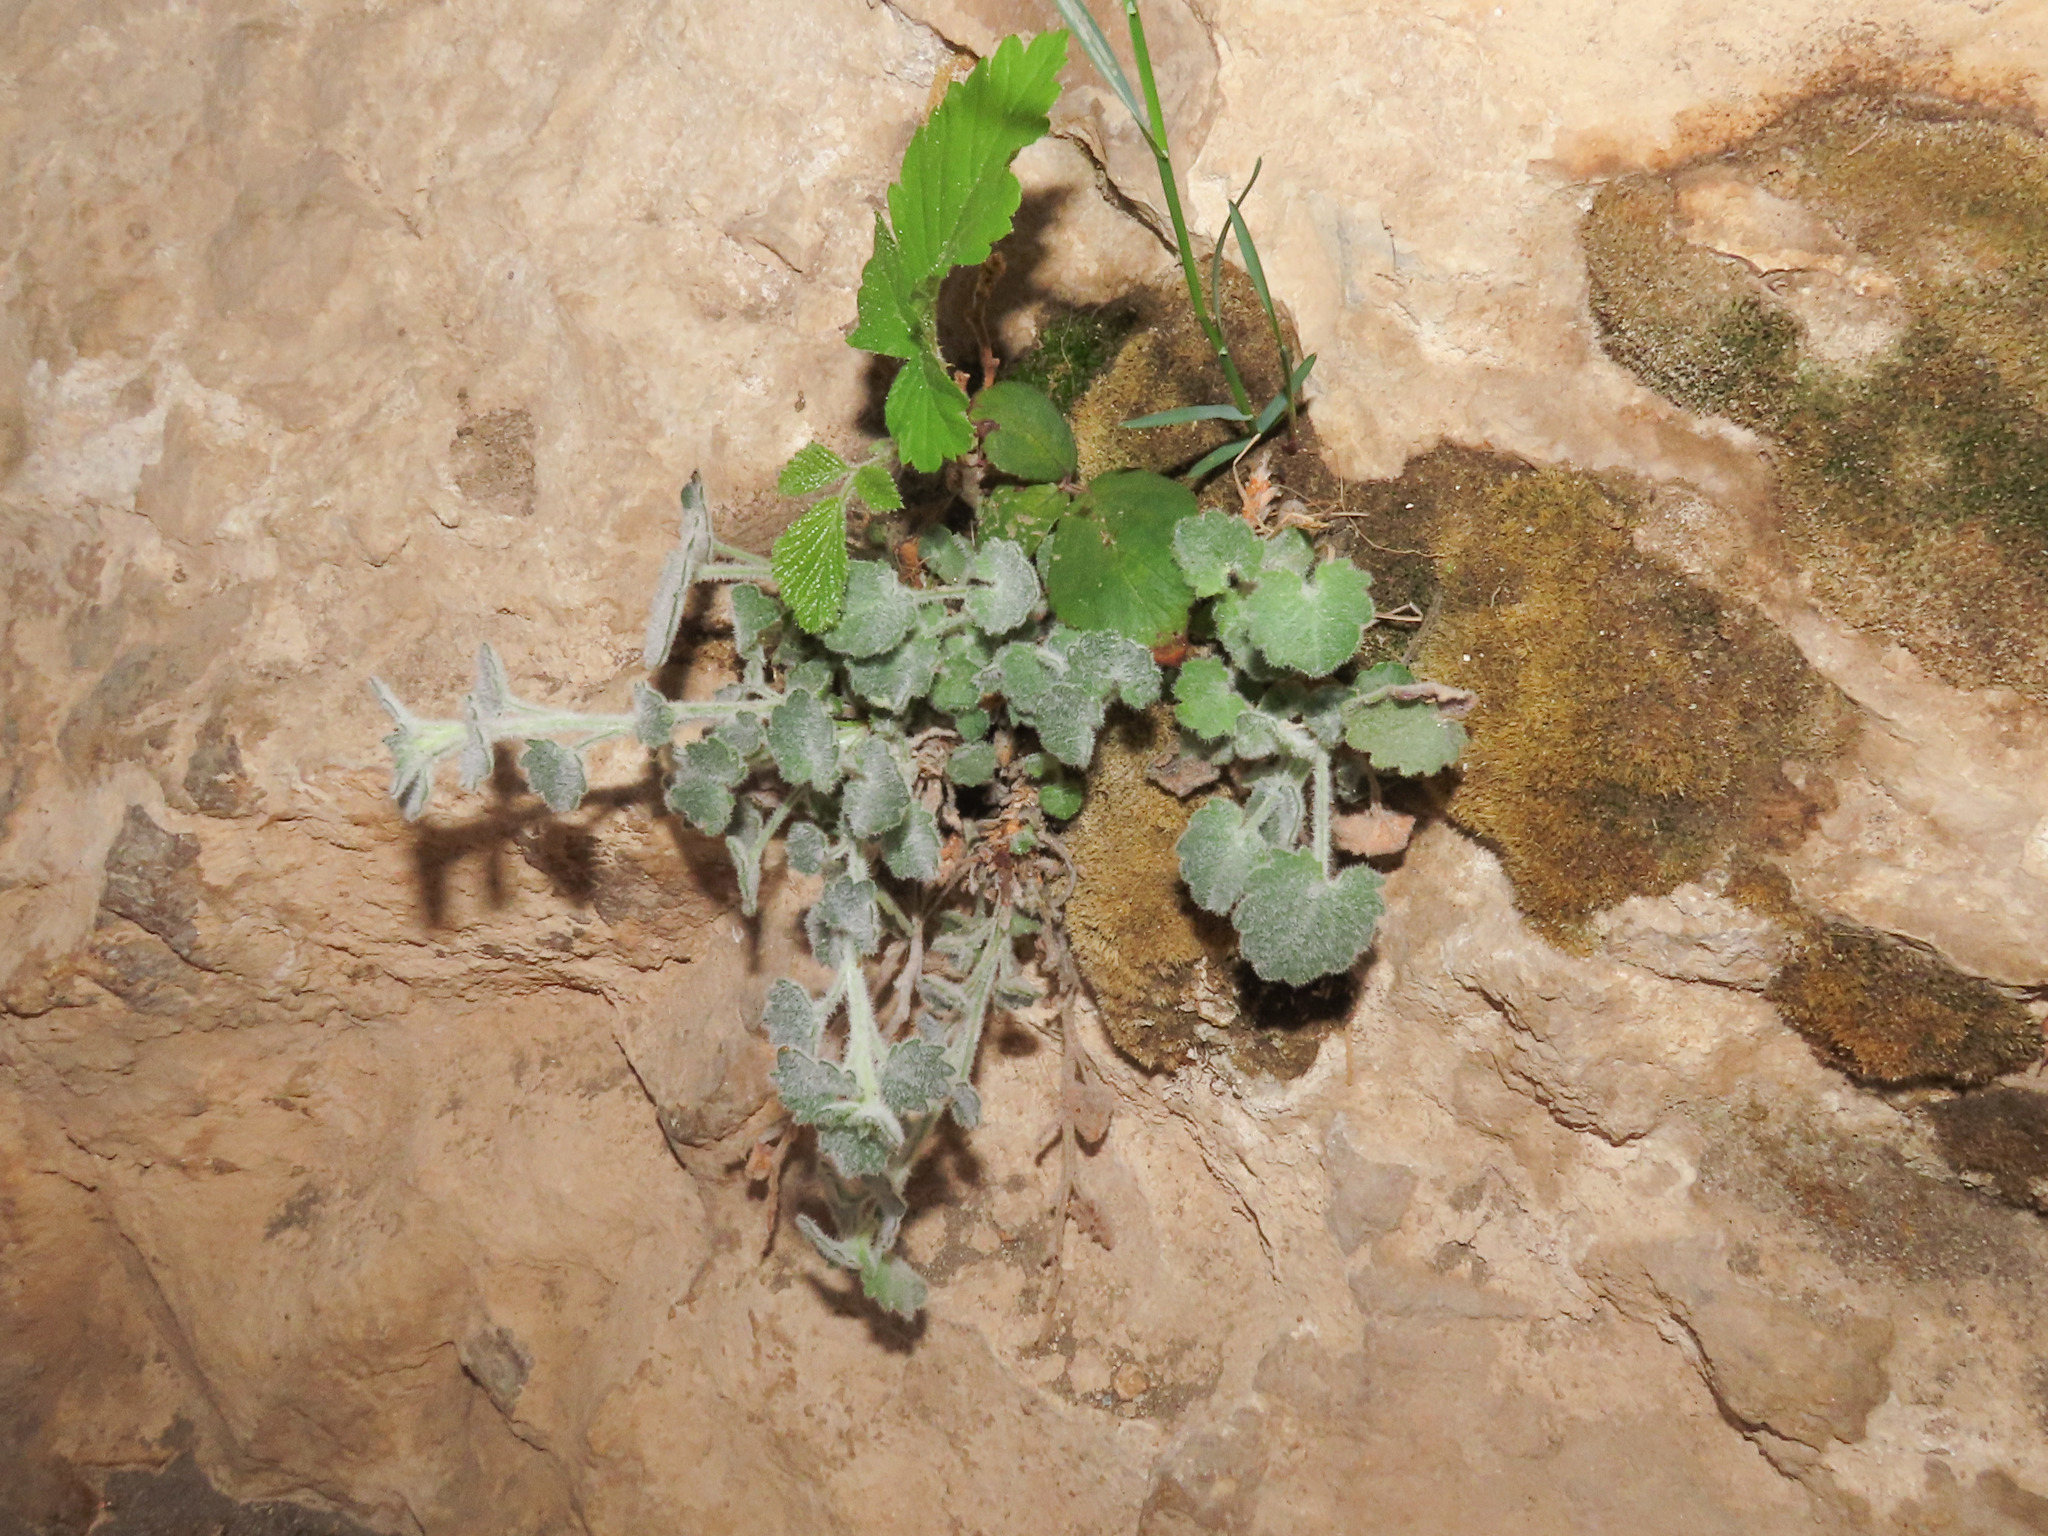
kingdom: Plantae
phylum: Tracheophyta
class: Magnoliopsida
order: Asterales
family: Campanulaceae
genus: Campanula
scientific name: Campanula fragilis
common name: Italian bellflower
